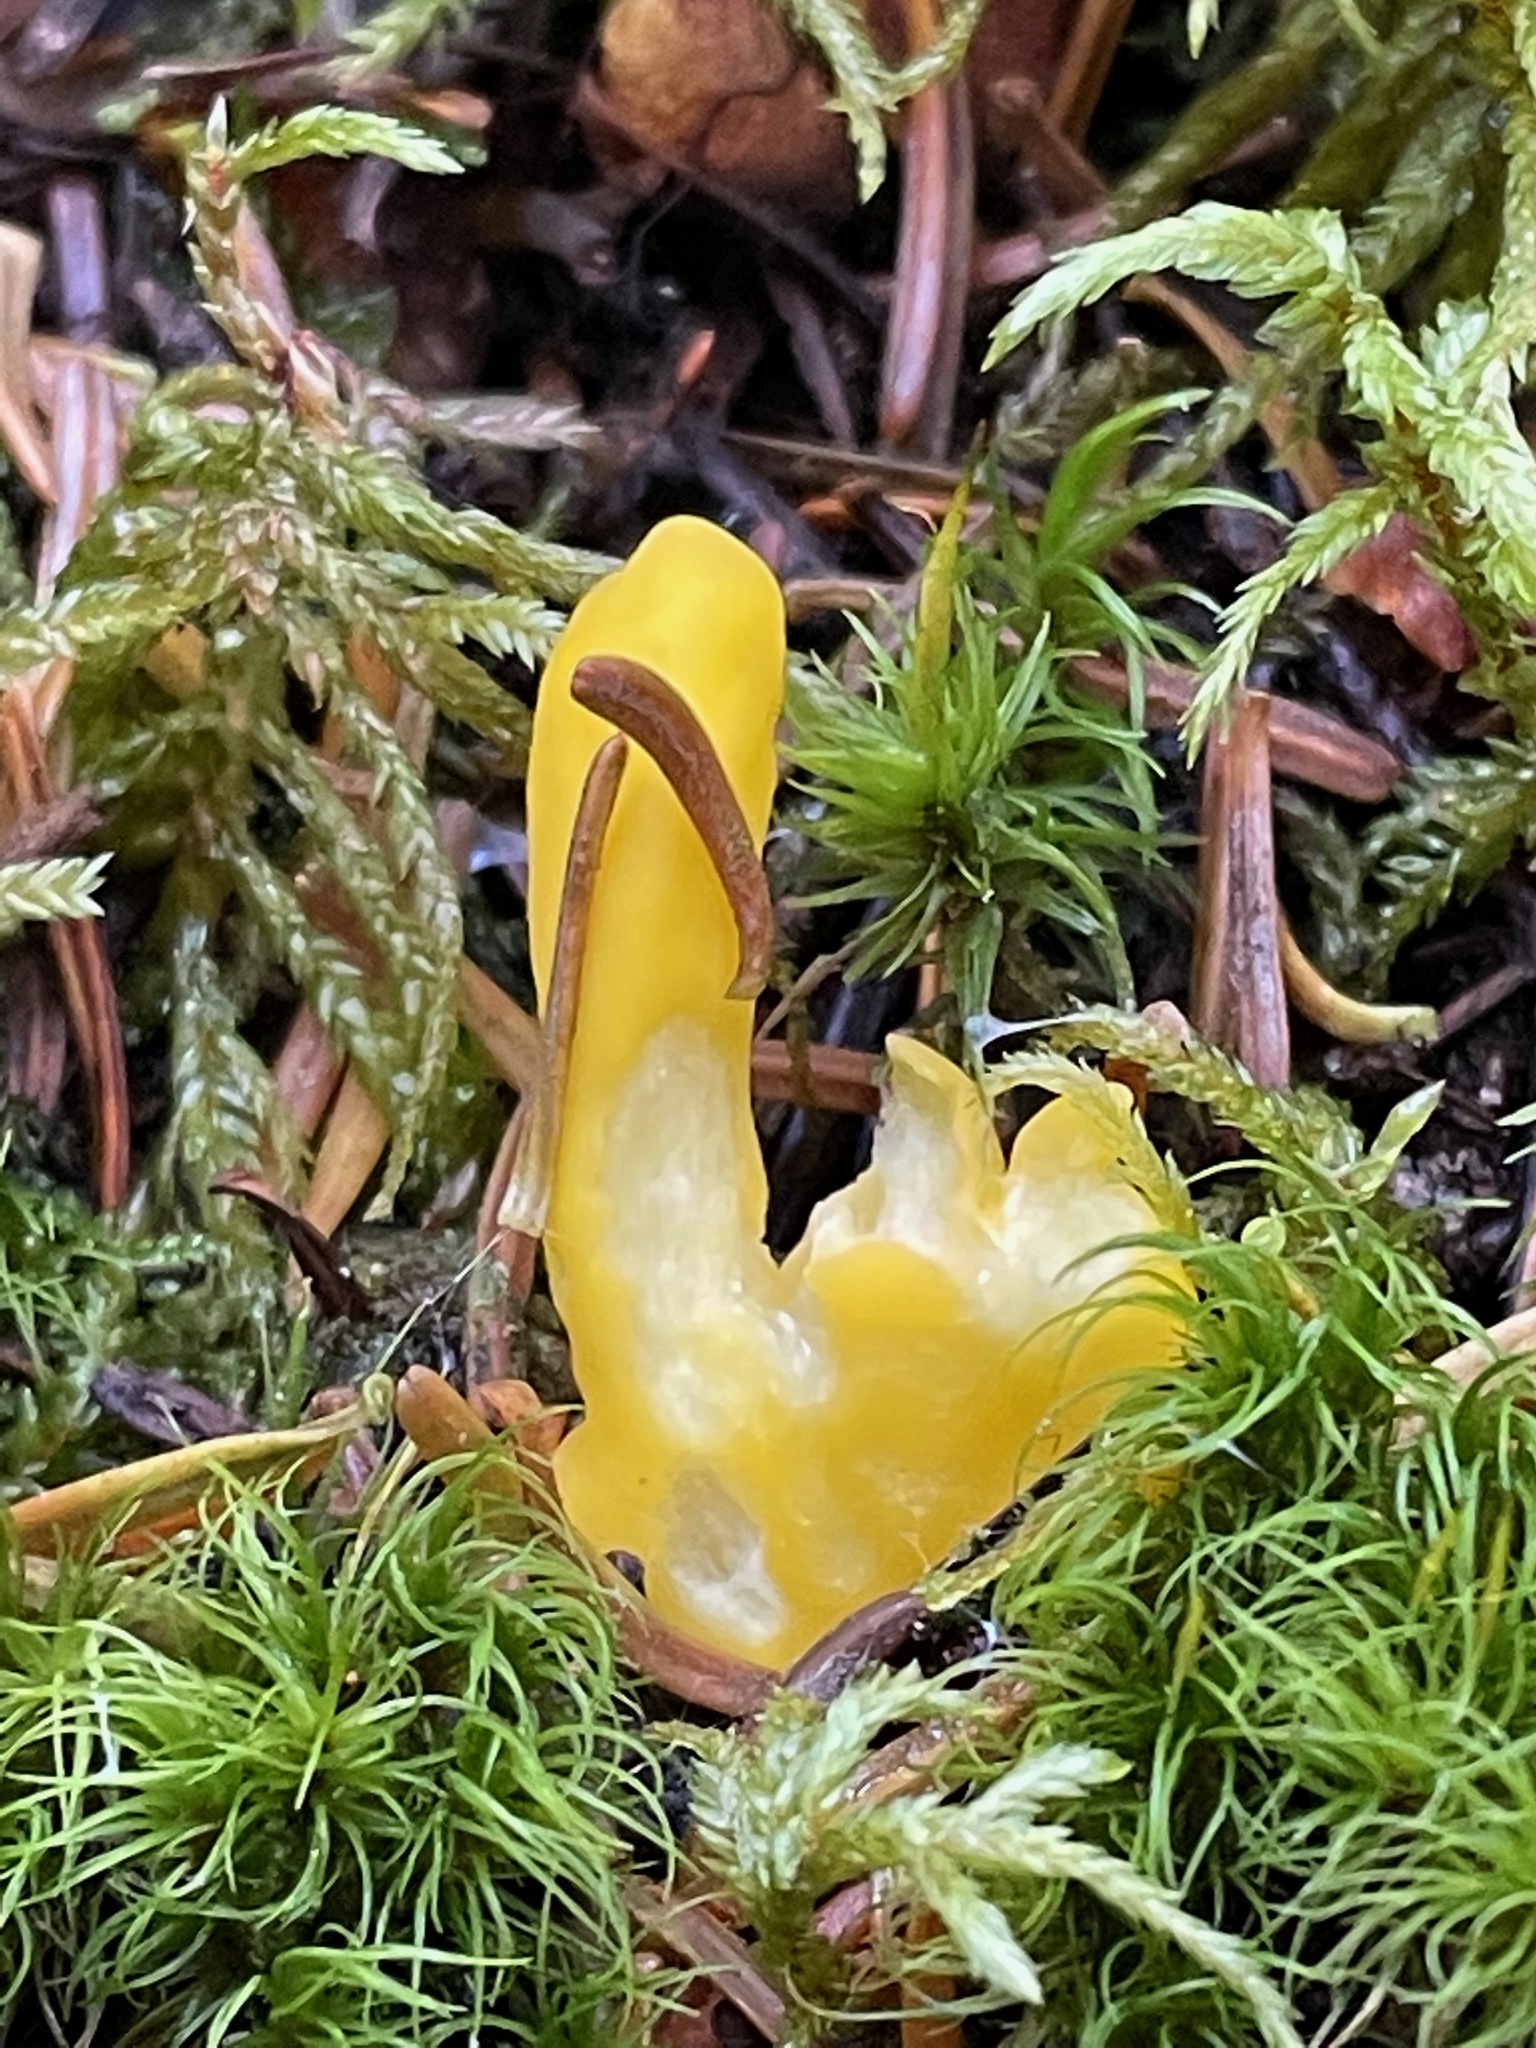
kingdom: Fungi
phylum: Ascomycota
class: Neolectomycetes
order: Neolectales
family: Neolectaceae
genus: Neolecta
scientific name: Neolecta irregularis
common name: Irregular earth tongue
